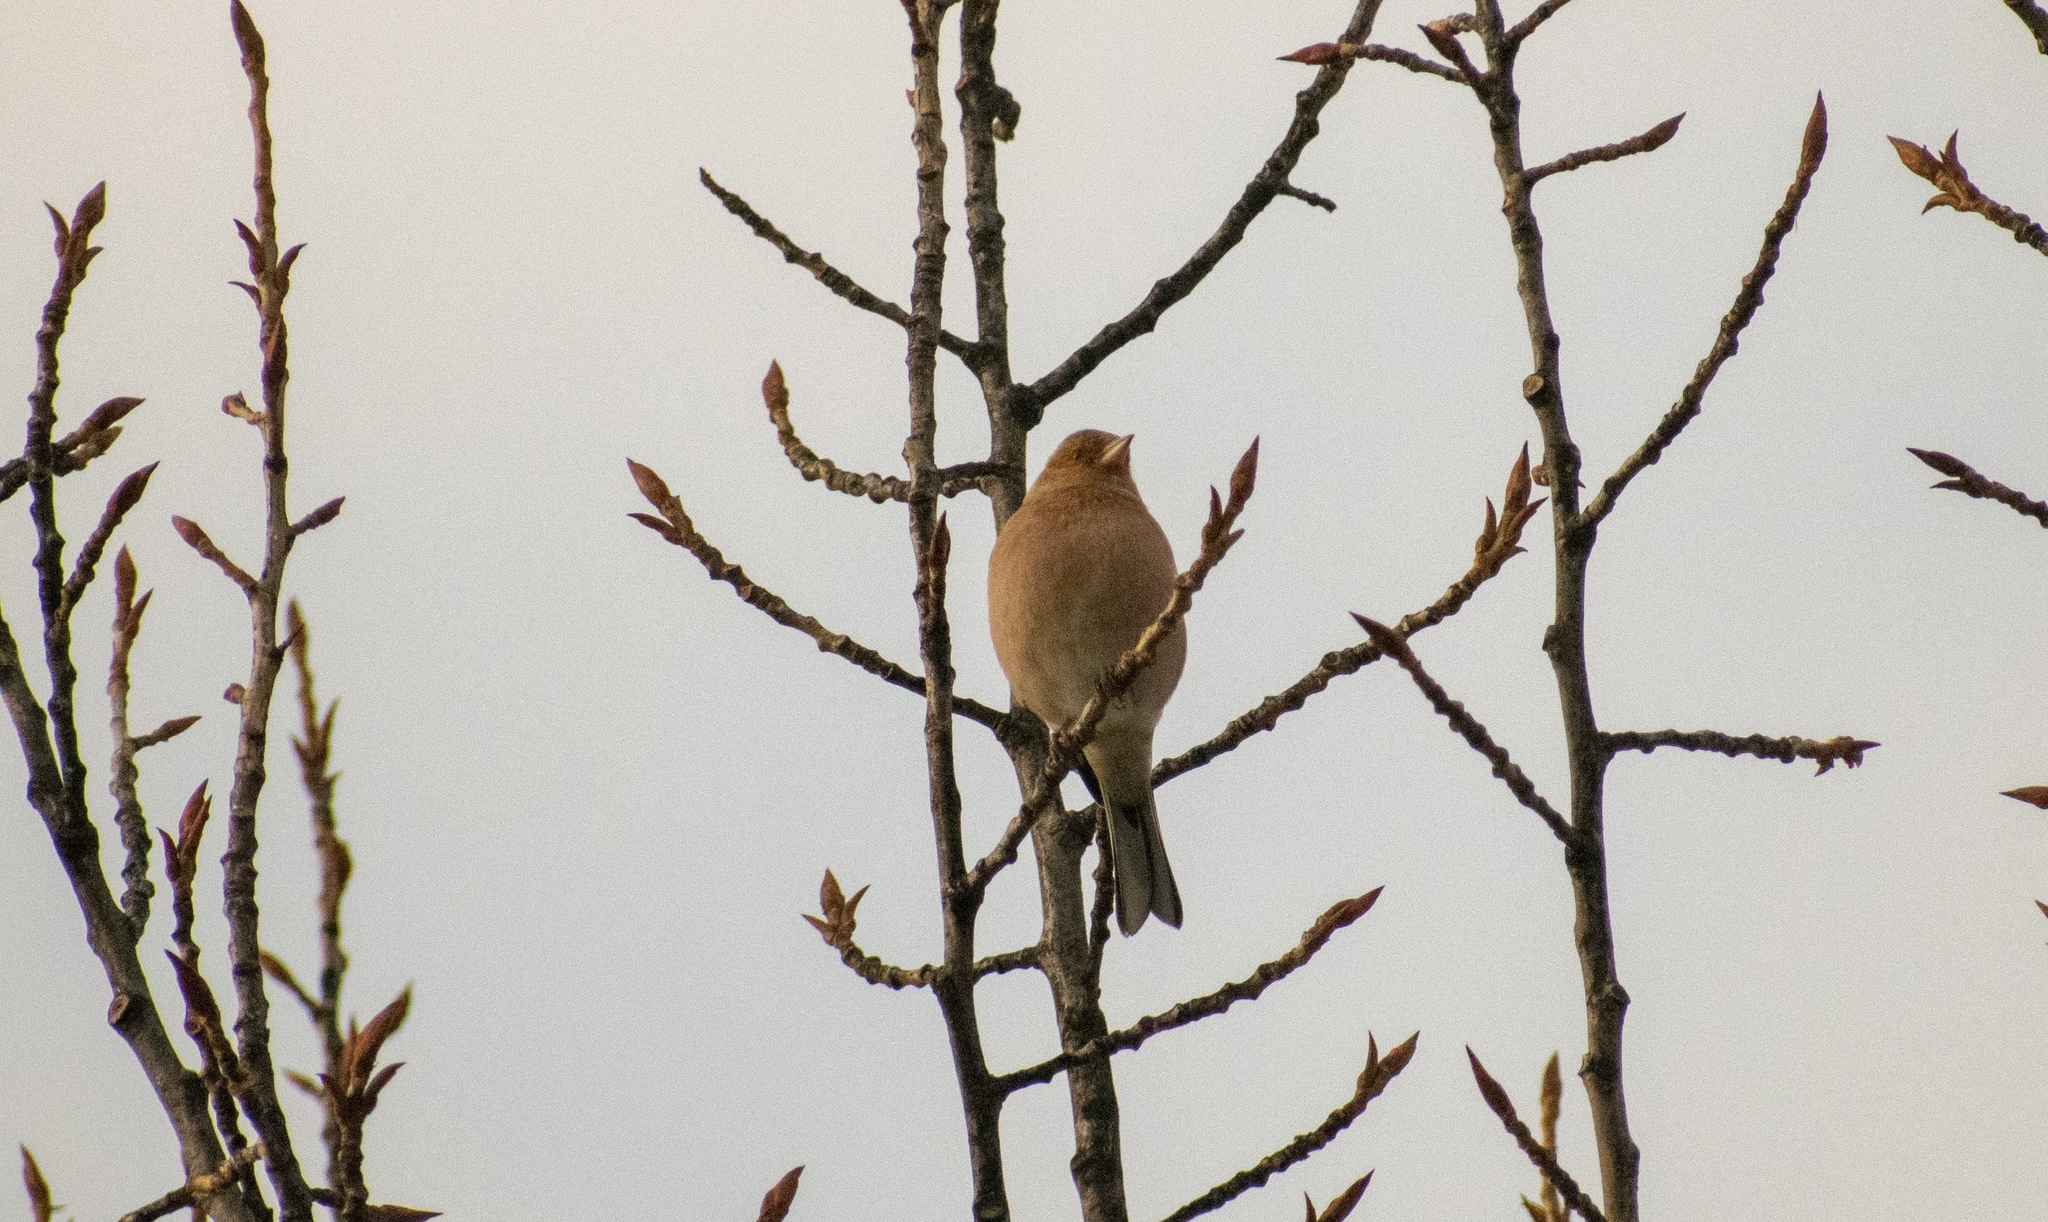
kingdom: Animalia
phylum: Chordata
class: Aves
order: Passeriformes
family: Fringillidae
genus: Fringilla
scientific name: Fringilla coelebs
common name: Common chaffinch
